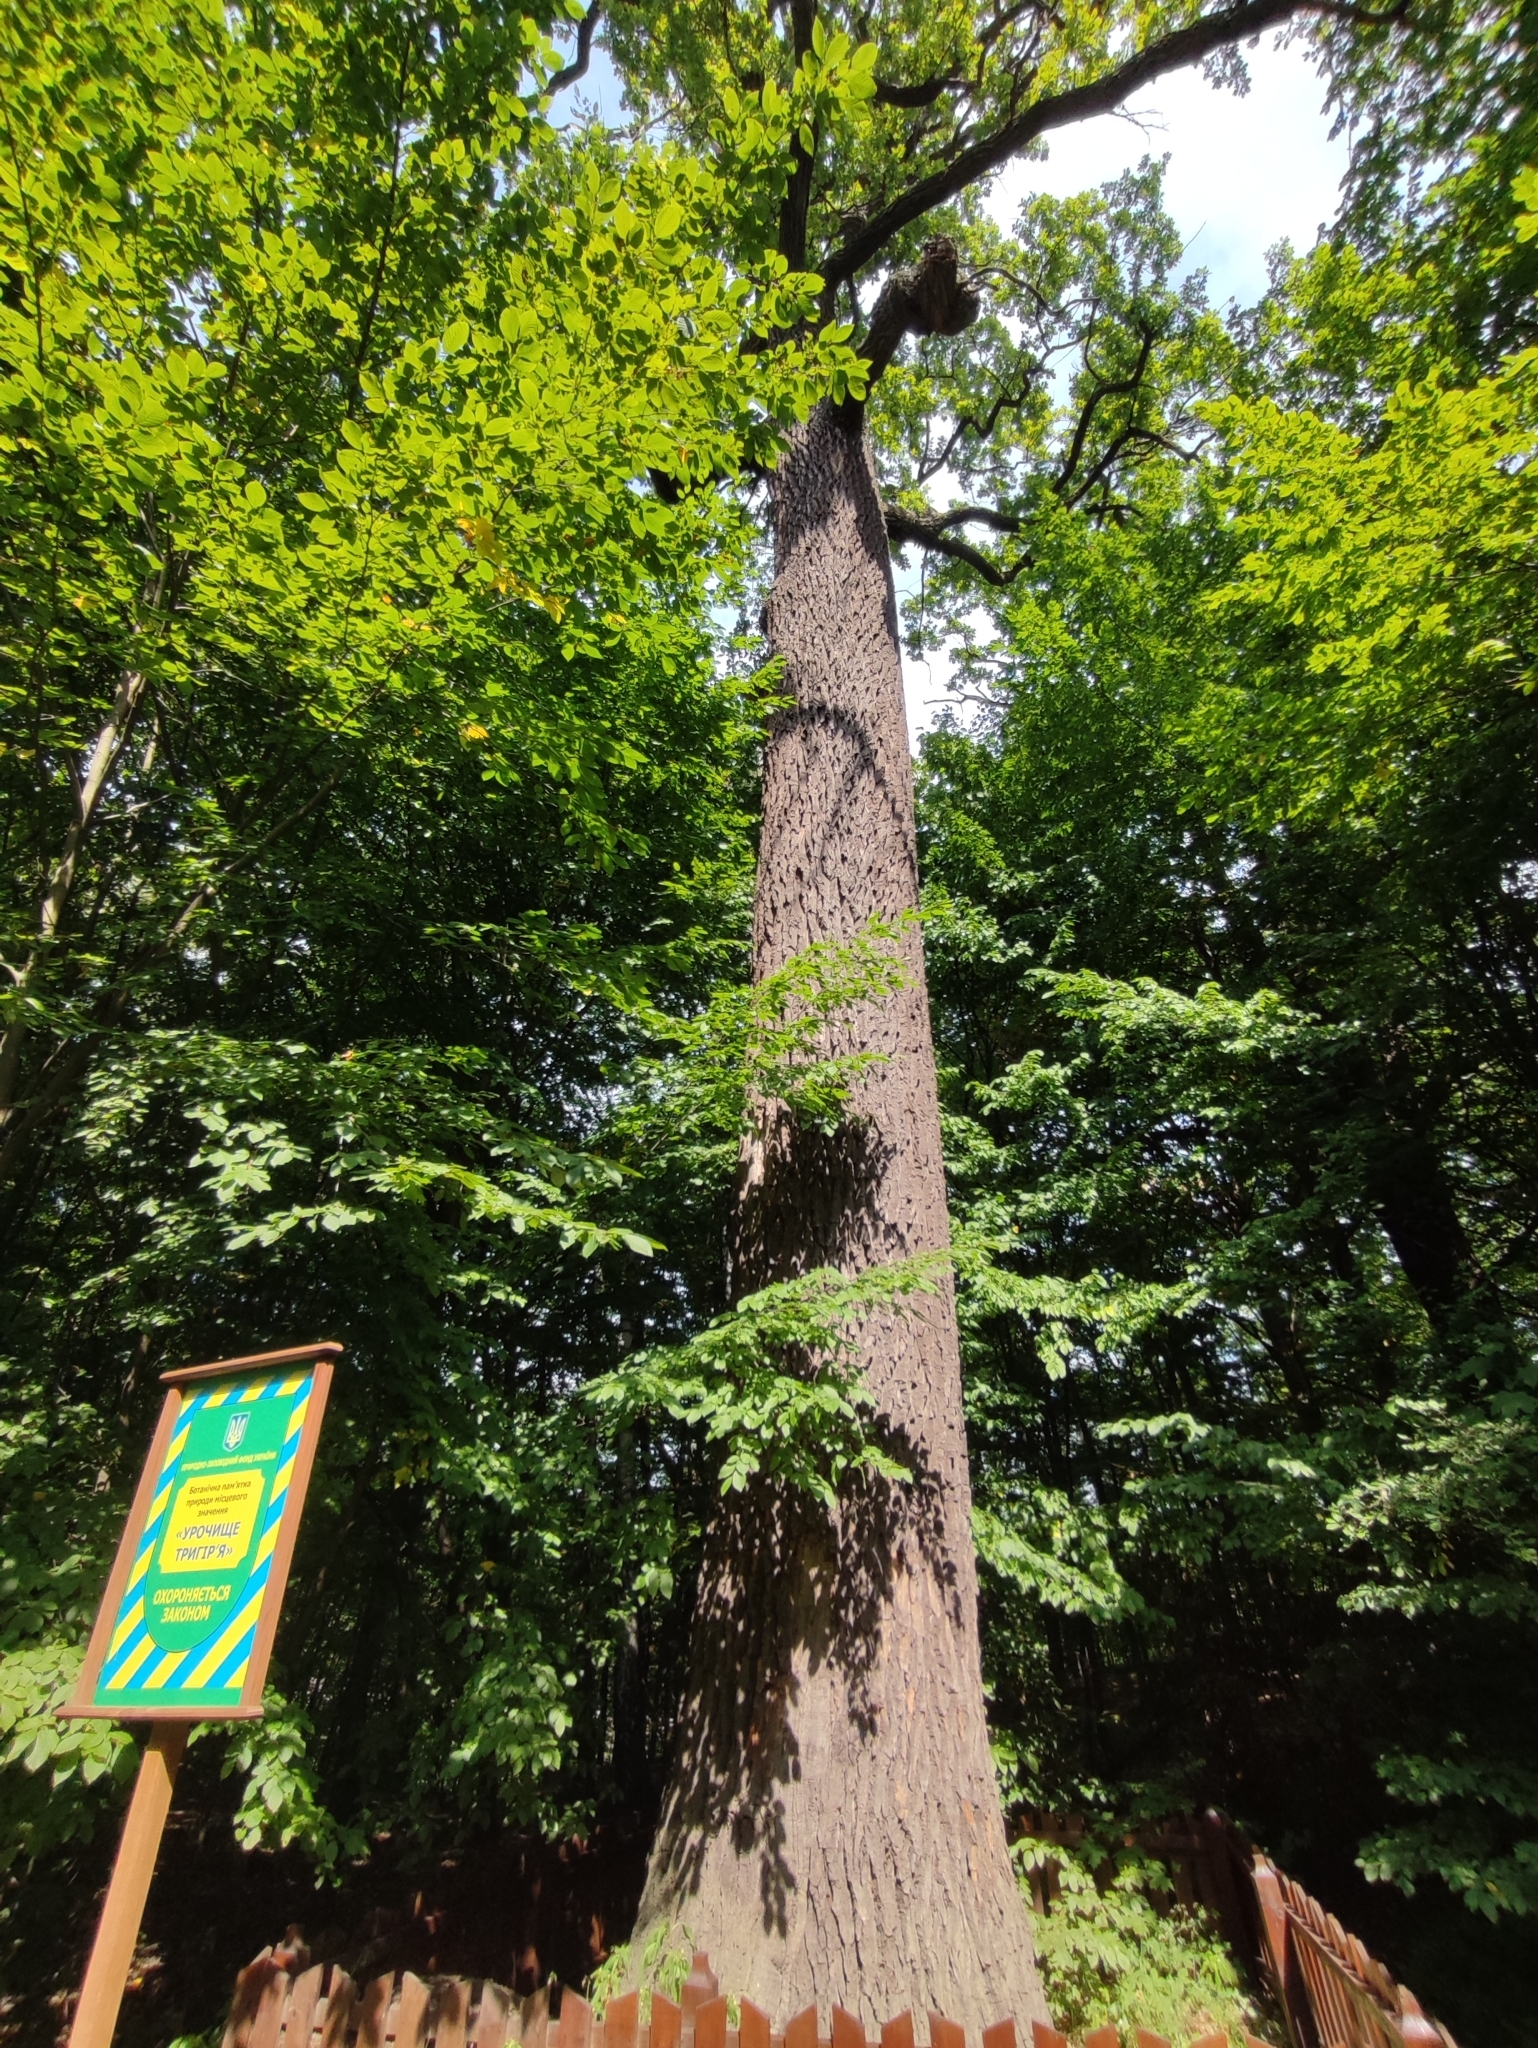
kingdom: Plantae
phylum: Tracheophyta
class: Magnoliopsida
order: Fagales
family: Fagaceae
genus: Quercus
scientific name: Quercus robur
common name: Pedunculate oak
